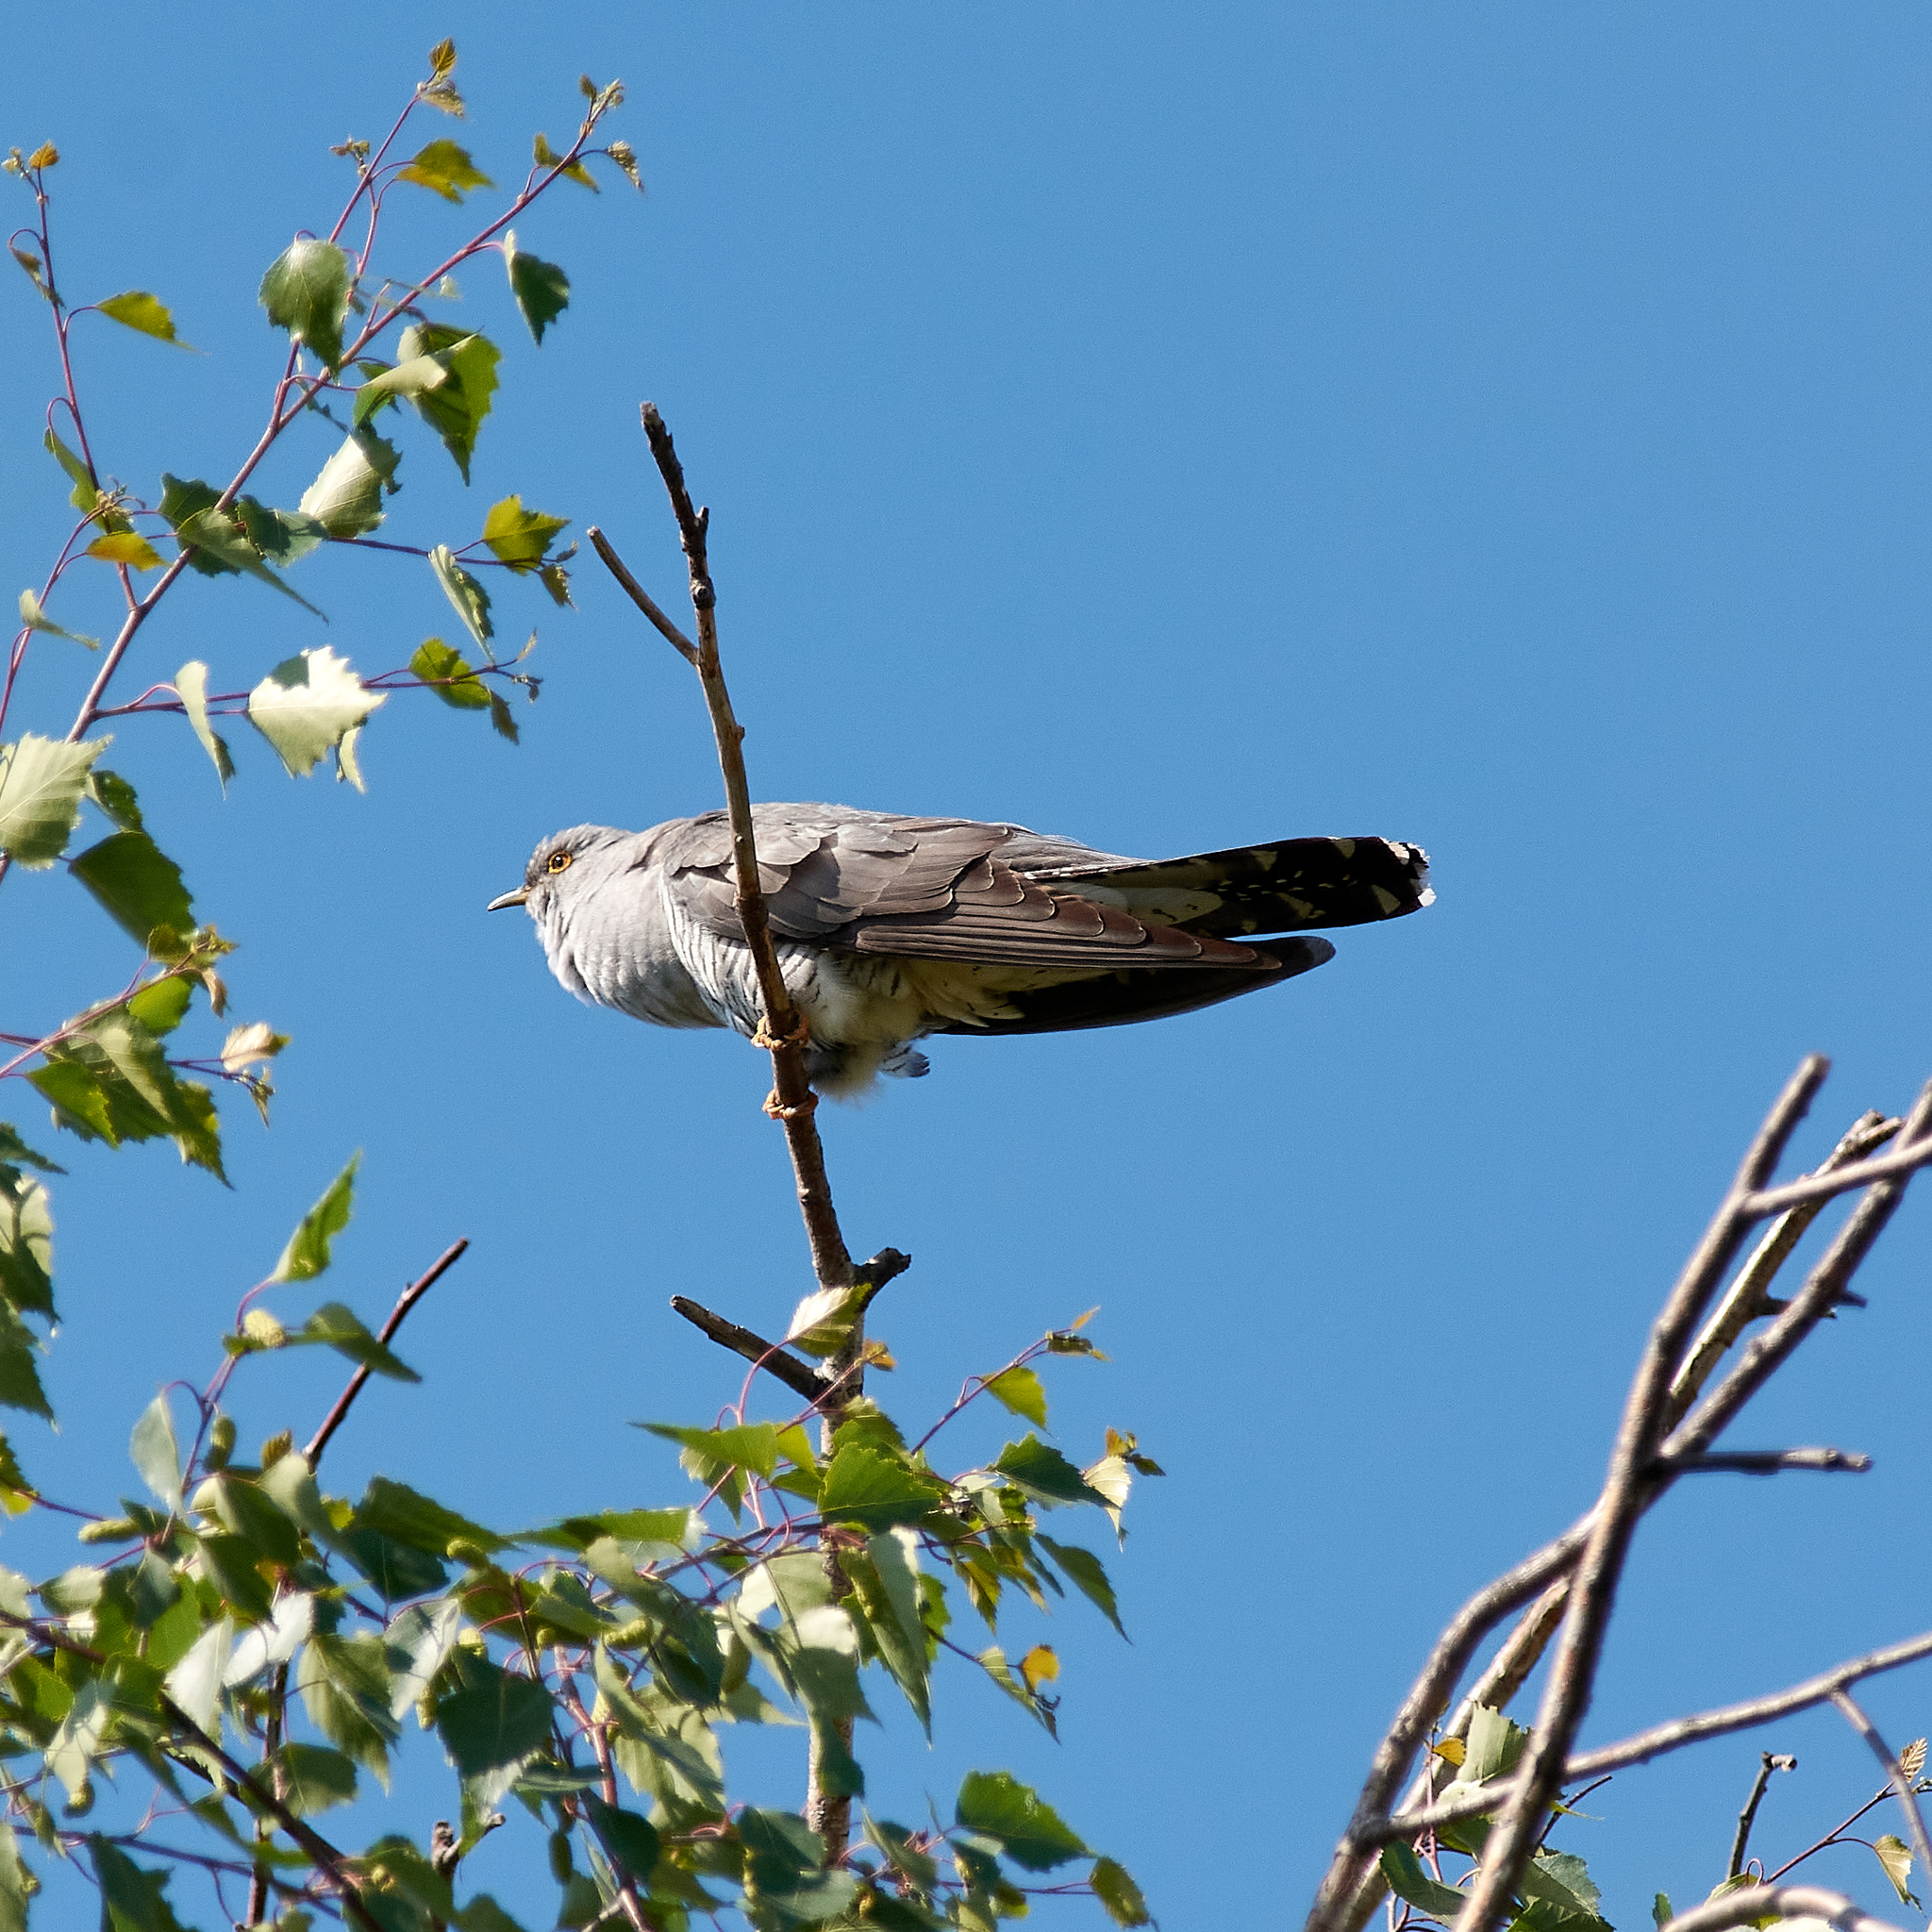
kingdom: Animalia
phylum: Chordata
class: Aves
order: Cuculiformes
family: Cuculidae
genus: Cuculus
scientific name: Cuculus canorus
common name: Common cuckoo
